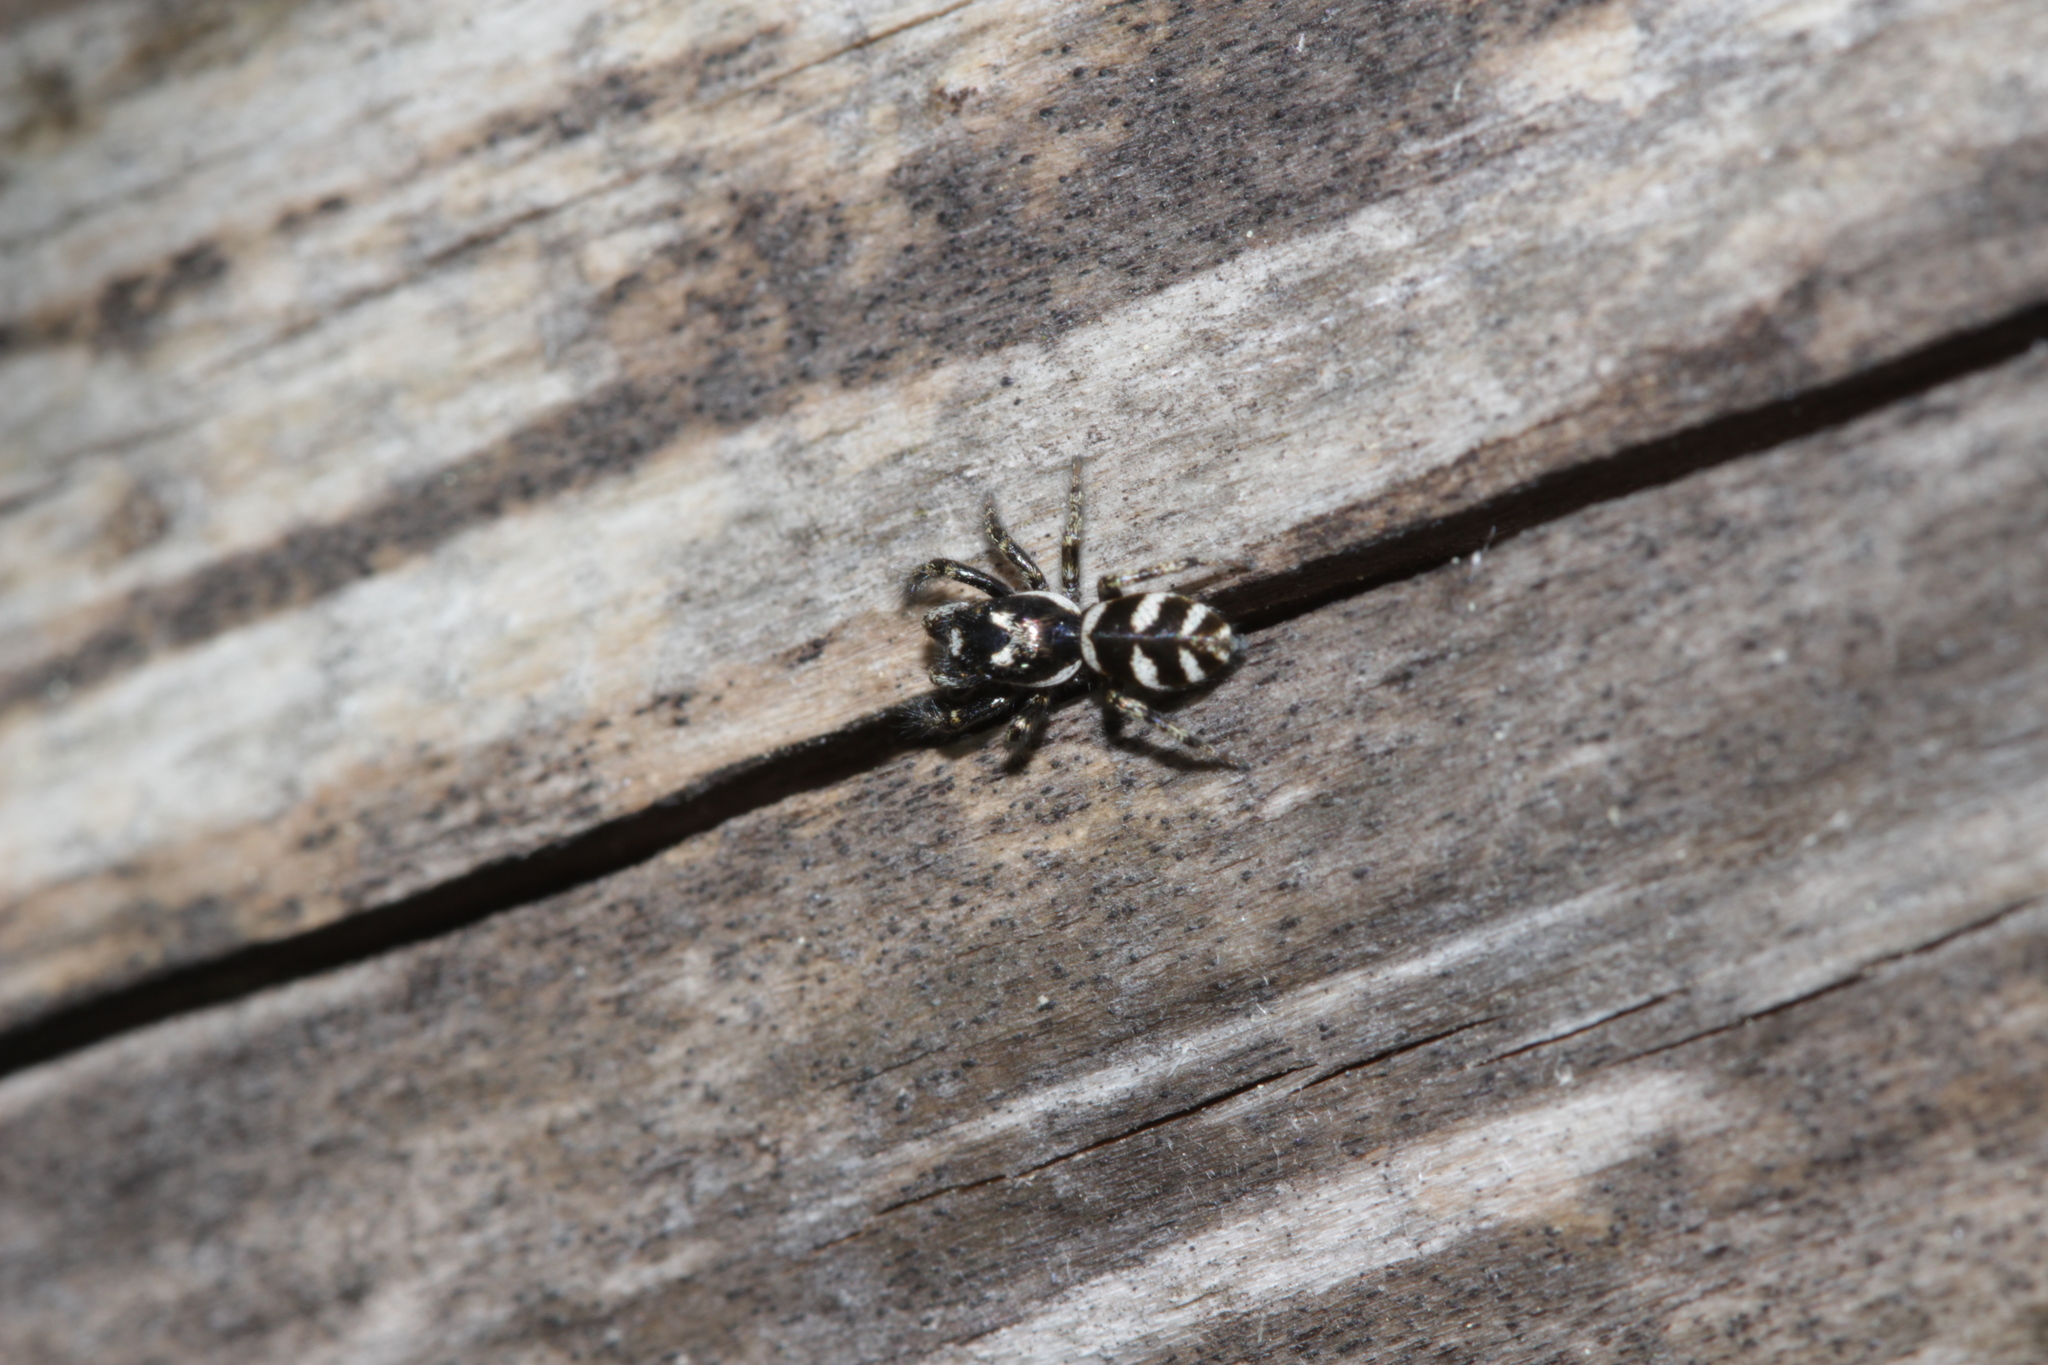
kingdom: Animalia
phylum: Arthropoda
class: Arachnida
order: Araneae
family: Salticidae
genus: Salticus
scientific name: Salticus scenicus
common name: Zebra jumper
